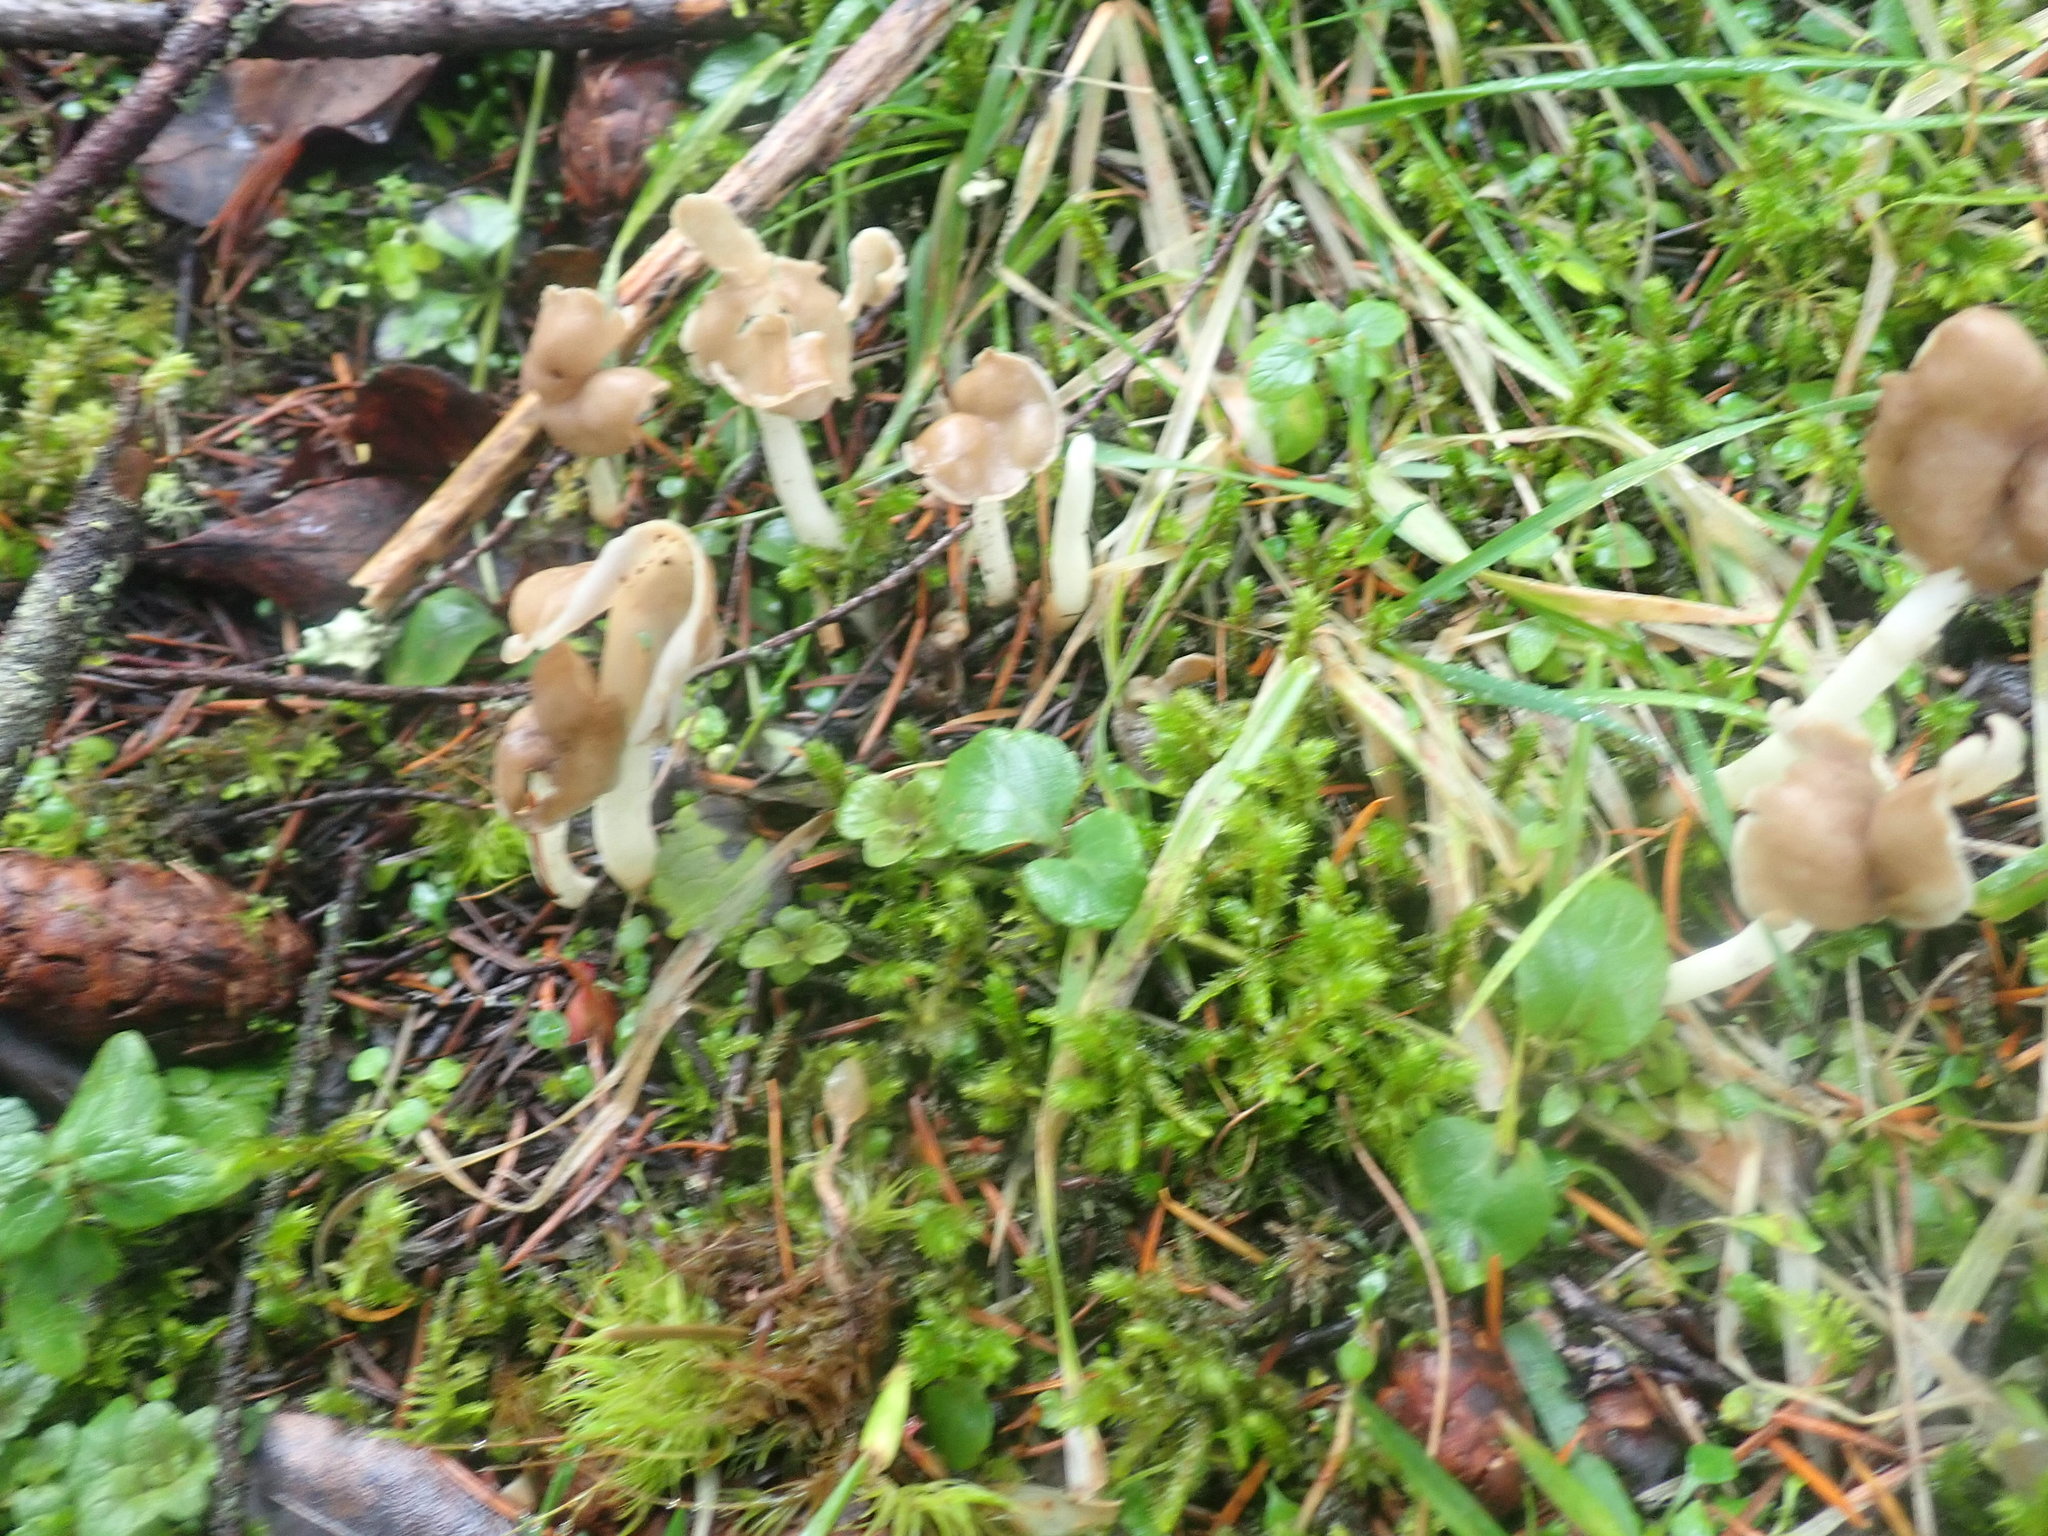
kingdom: Fungi
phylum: Ascomycota
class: Pezizomycetes
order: Pezizales
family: Helvellaceae
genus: Helvella
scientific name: Helvella elastica
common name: Elastic saddle
